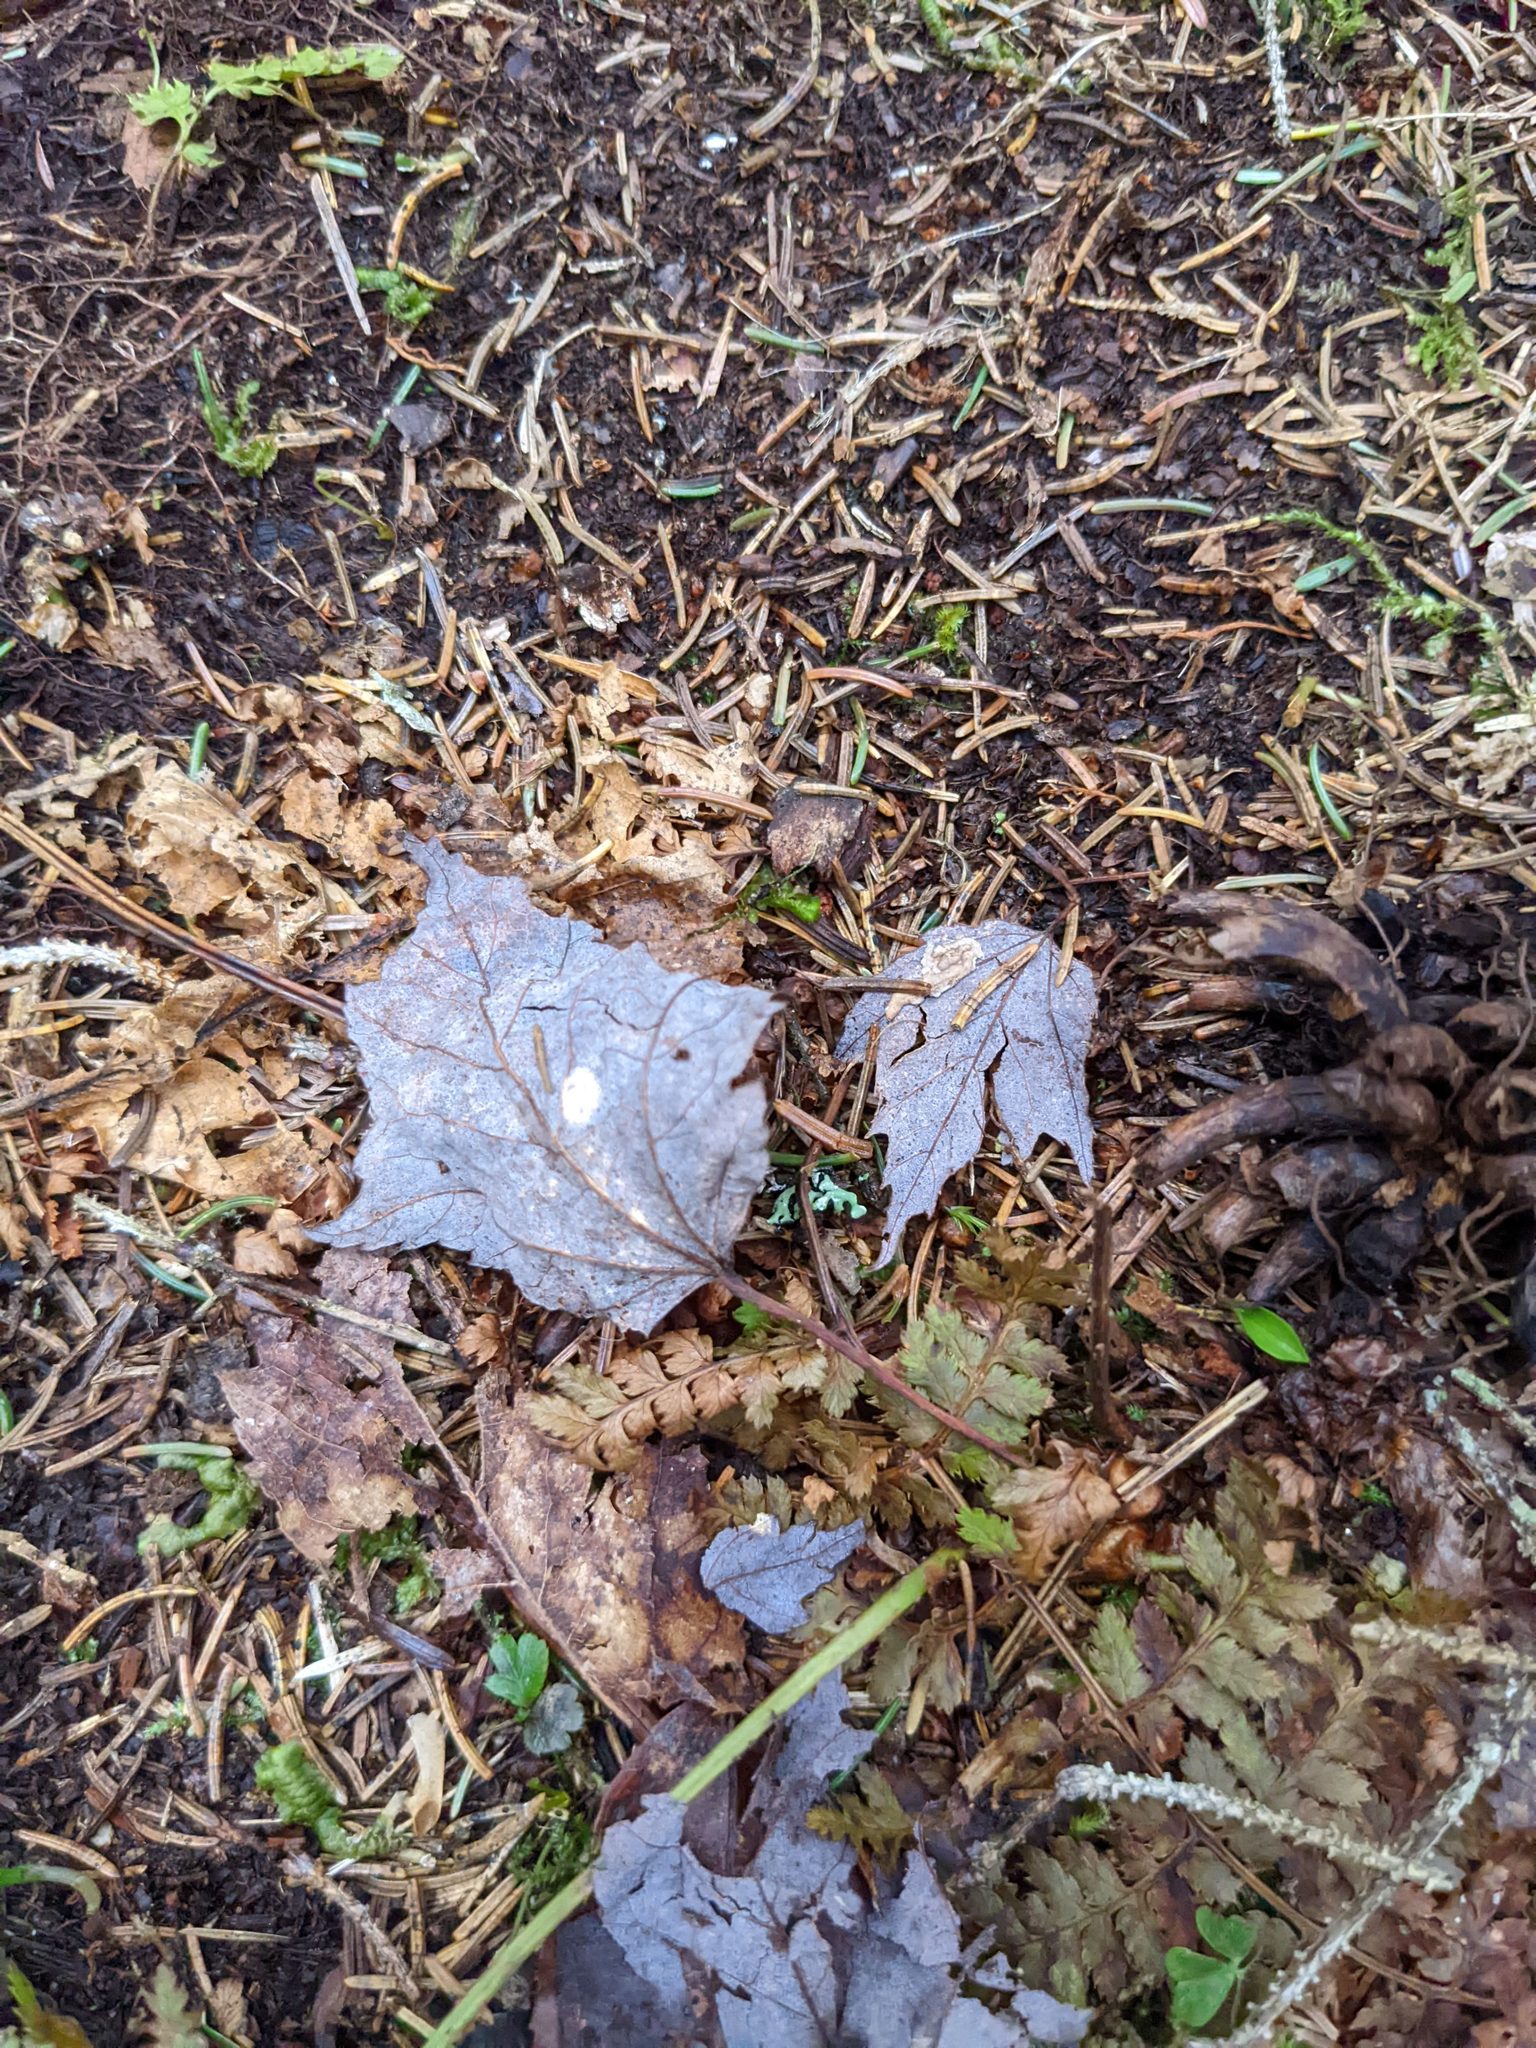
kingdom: Plantae
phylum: Tracheophyta
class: Magnoliopsida
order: Sapindales
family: Sapindaceae
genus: Acer
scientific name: Acer rubrum
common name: Red maple
